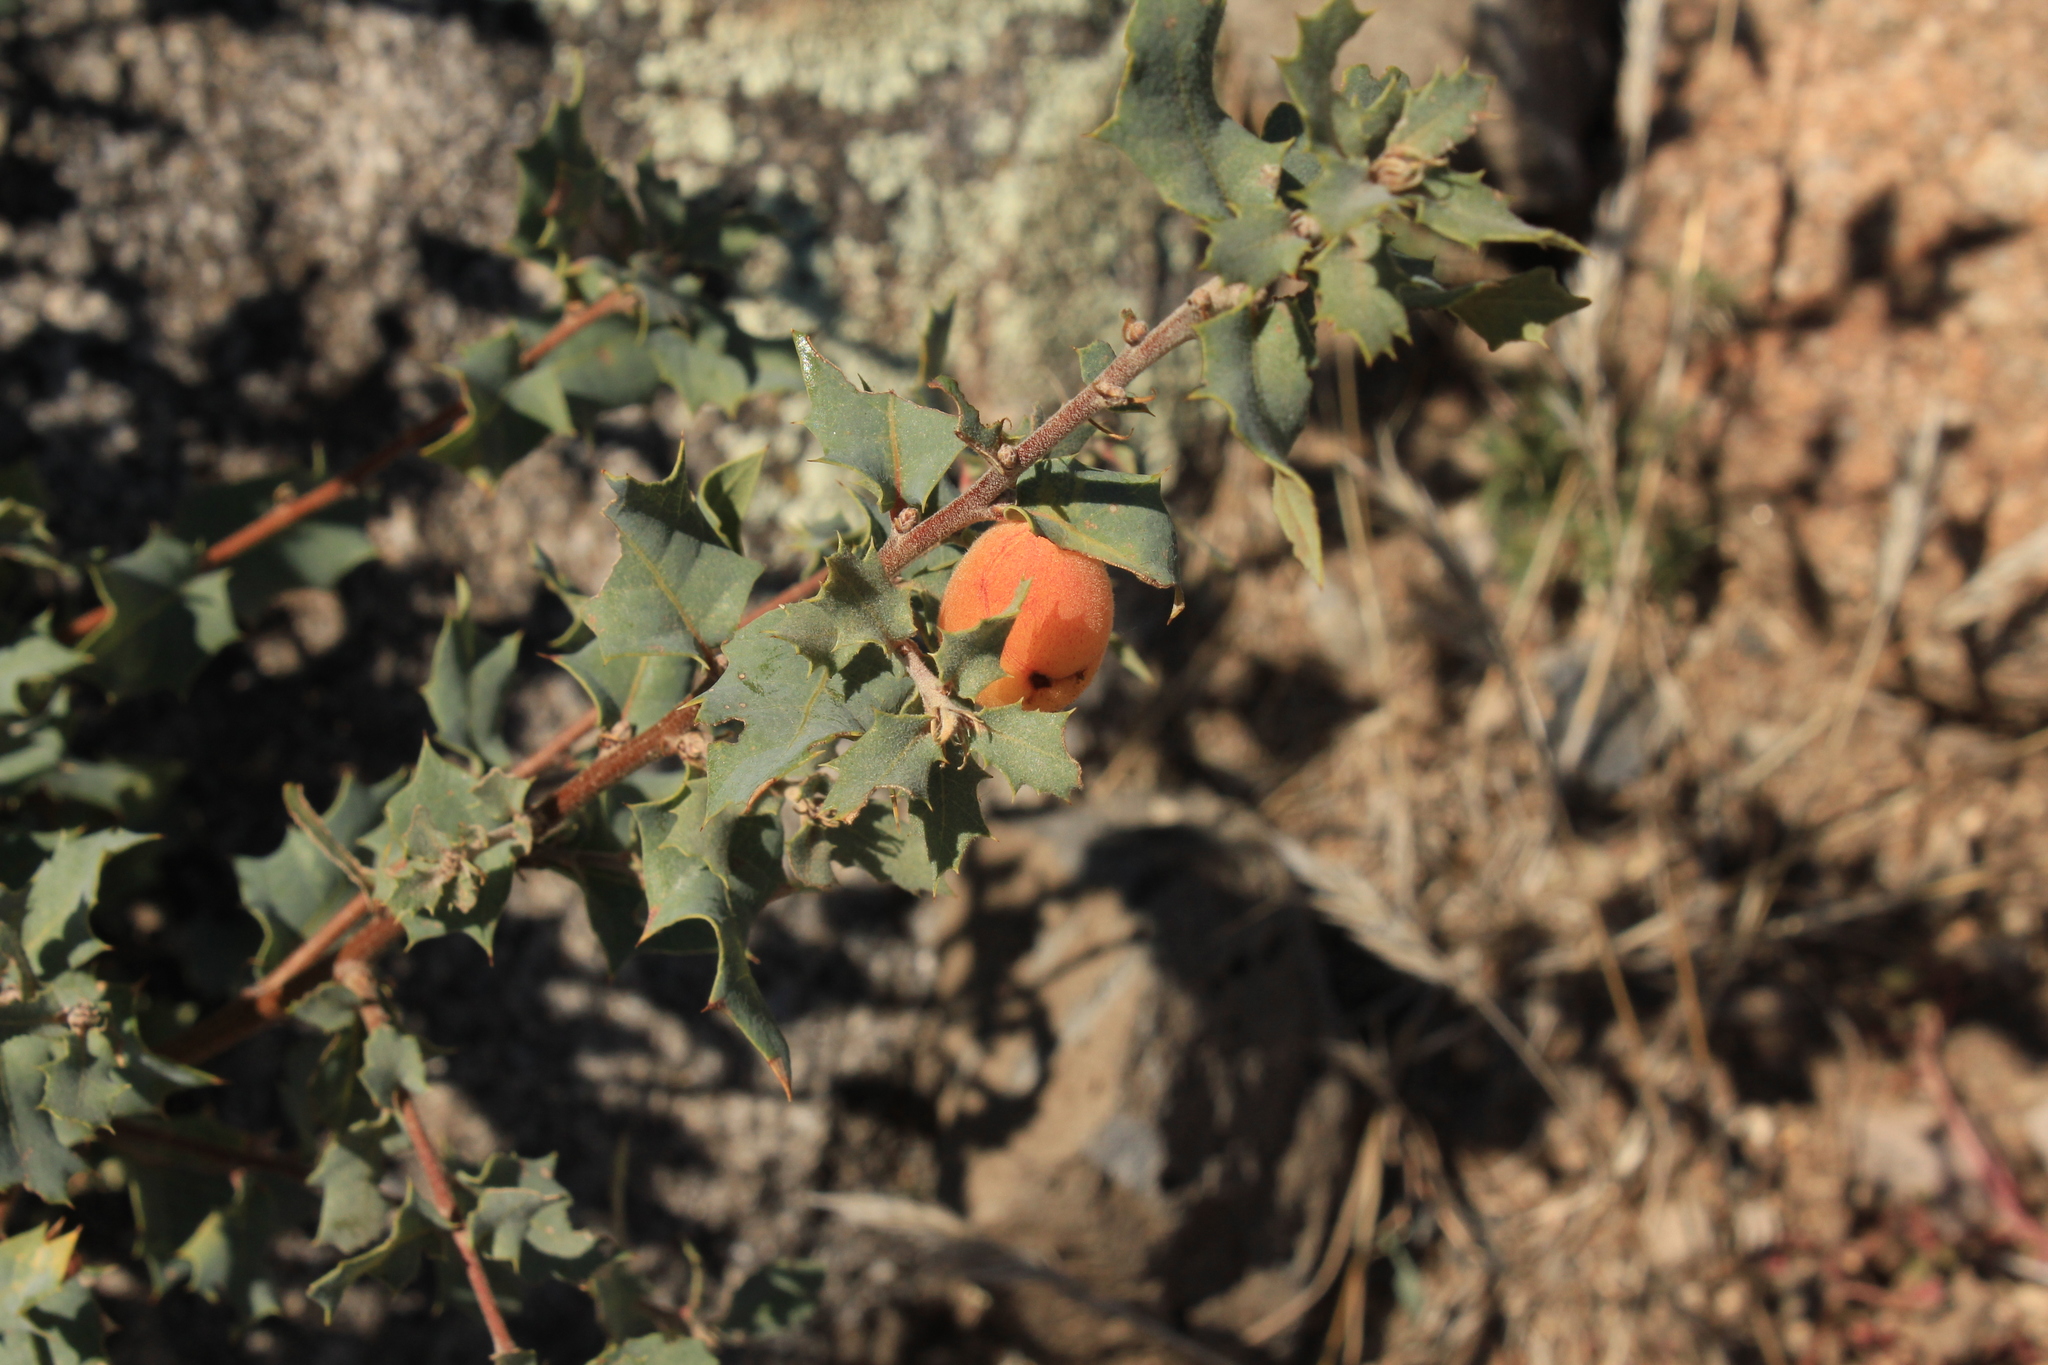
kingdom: Plantae
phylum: Tracheophyta
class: Magnoliopsida
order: Fagales
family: Fagaceae
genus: Quercus
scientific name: Quercus turbinella
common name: Sonoran scrub oak
